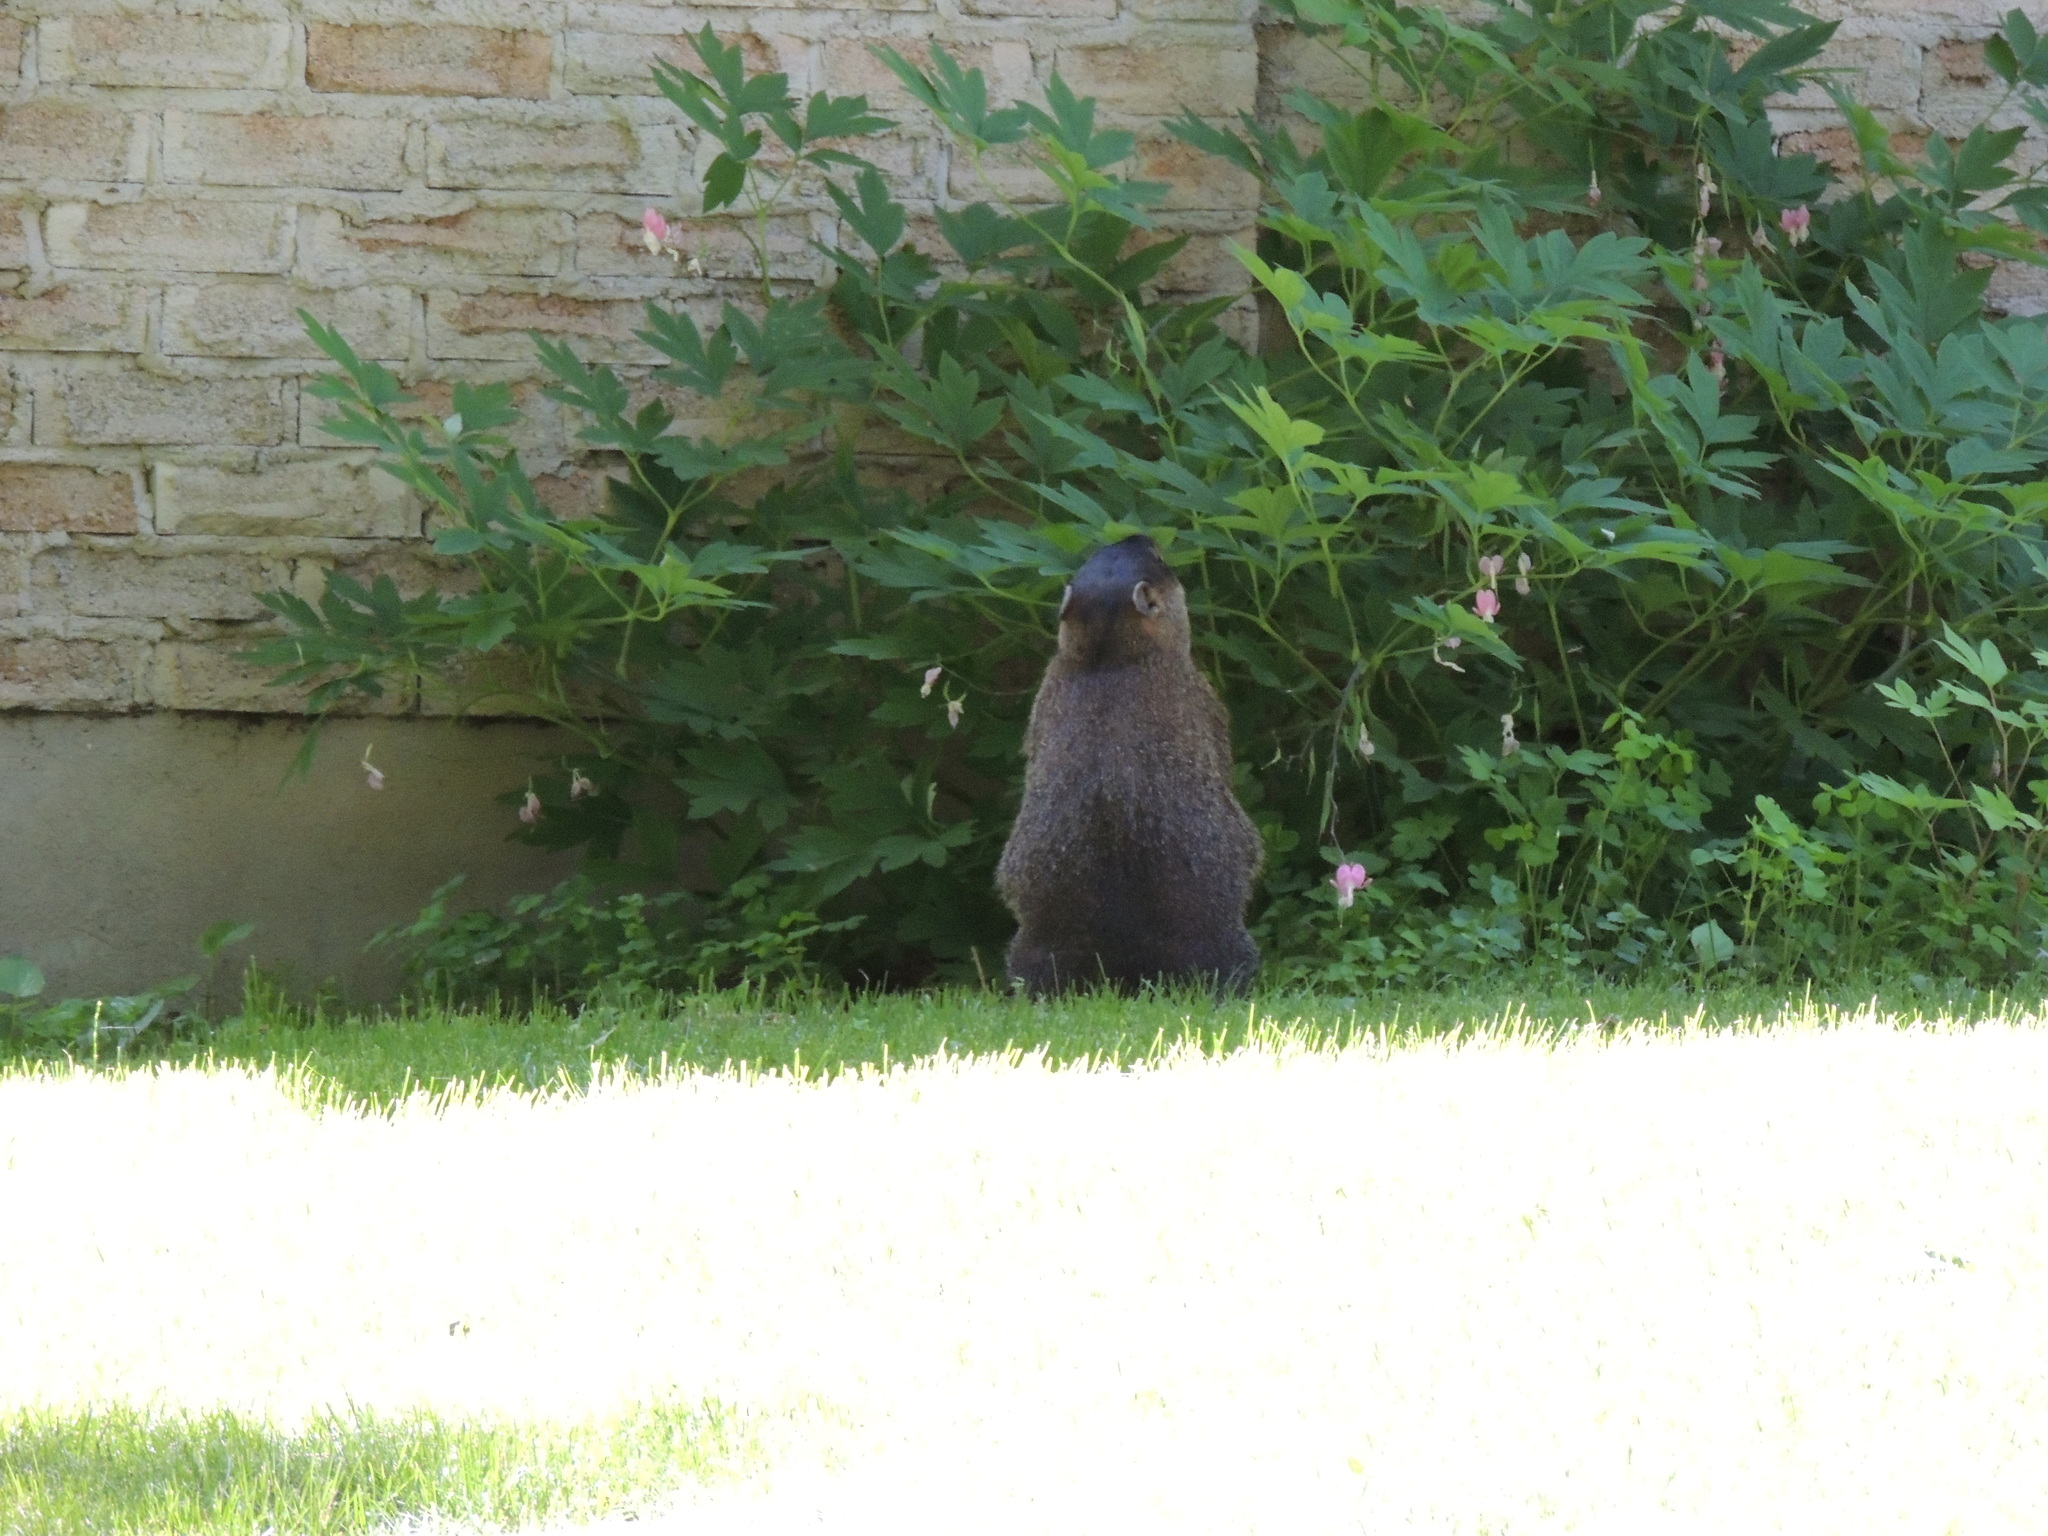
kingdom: Animalia
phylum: Chordata
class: Mammalia
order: Rodentia
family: Sciuridae
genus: Marmota
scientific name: Marmota monax
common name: Groundhog
